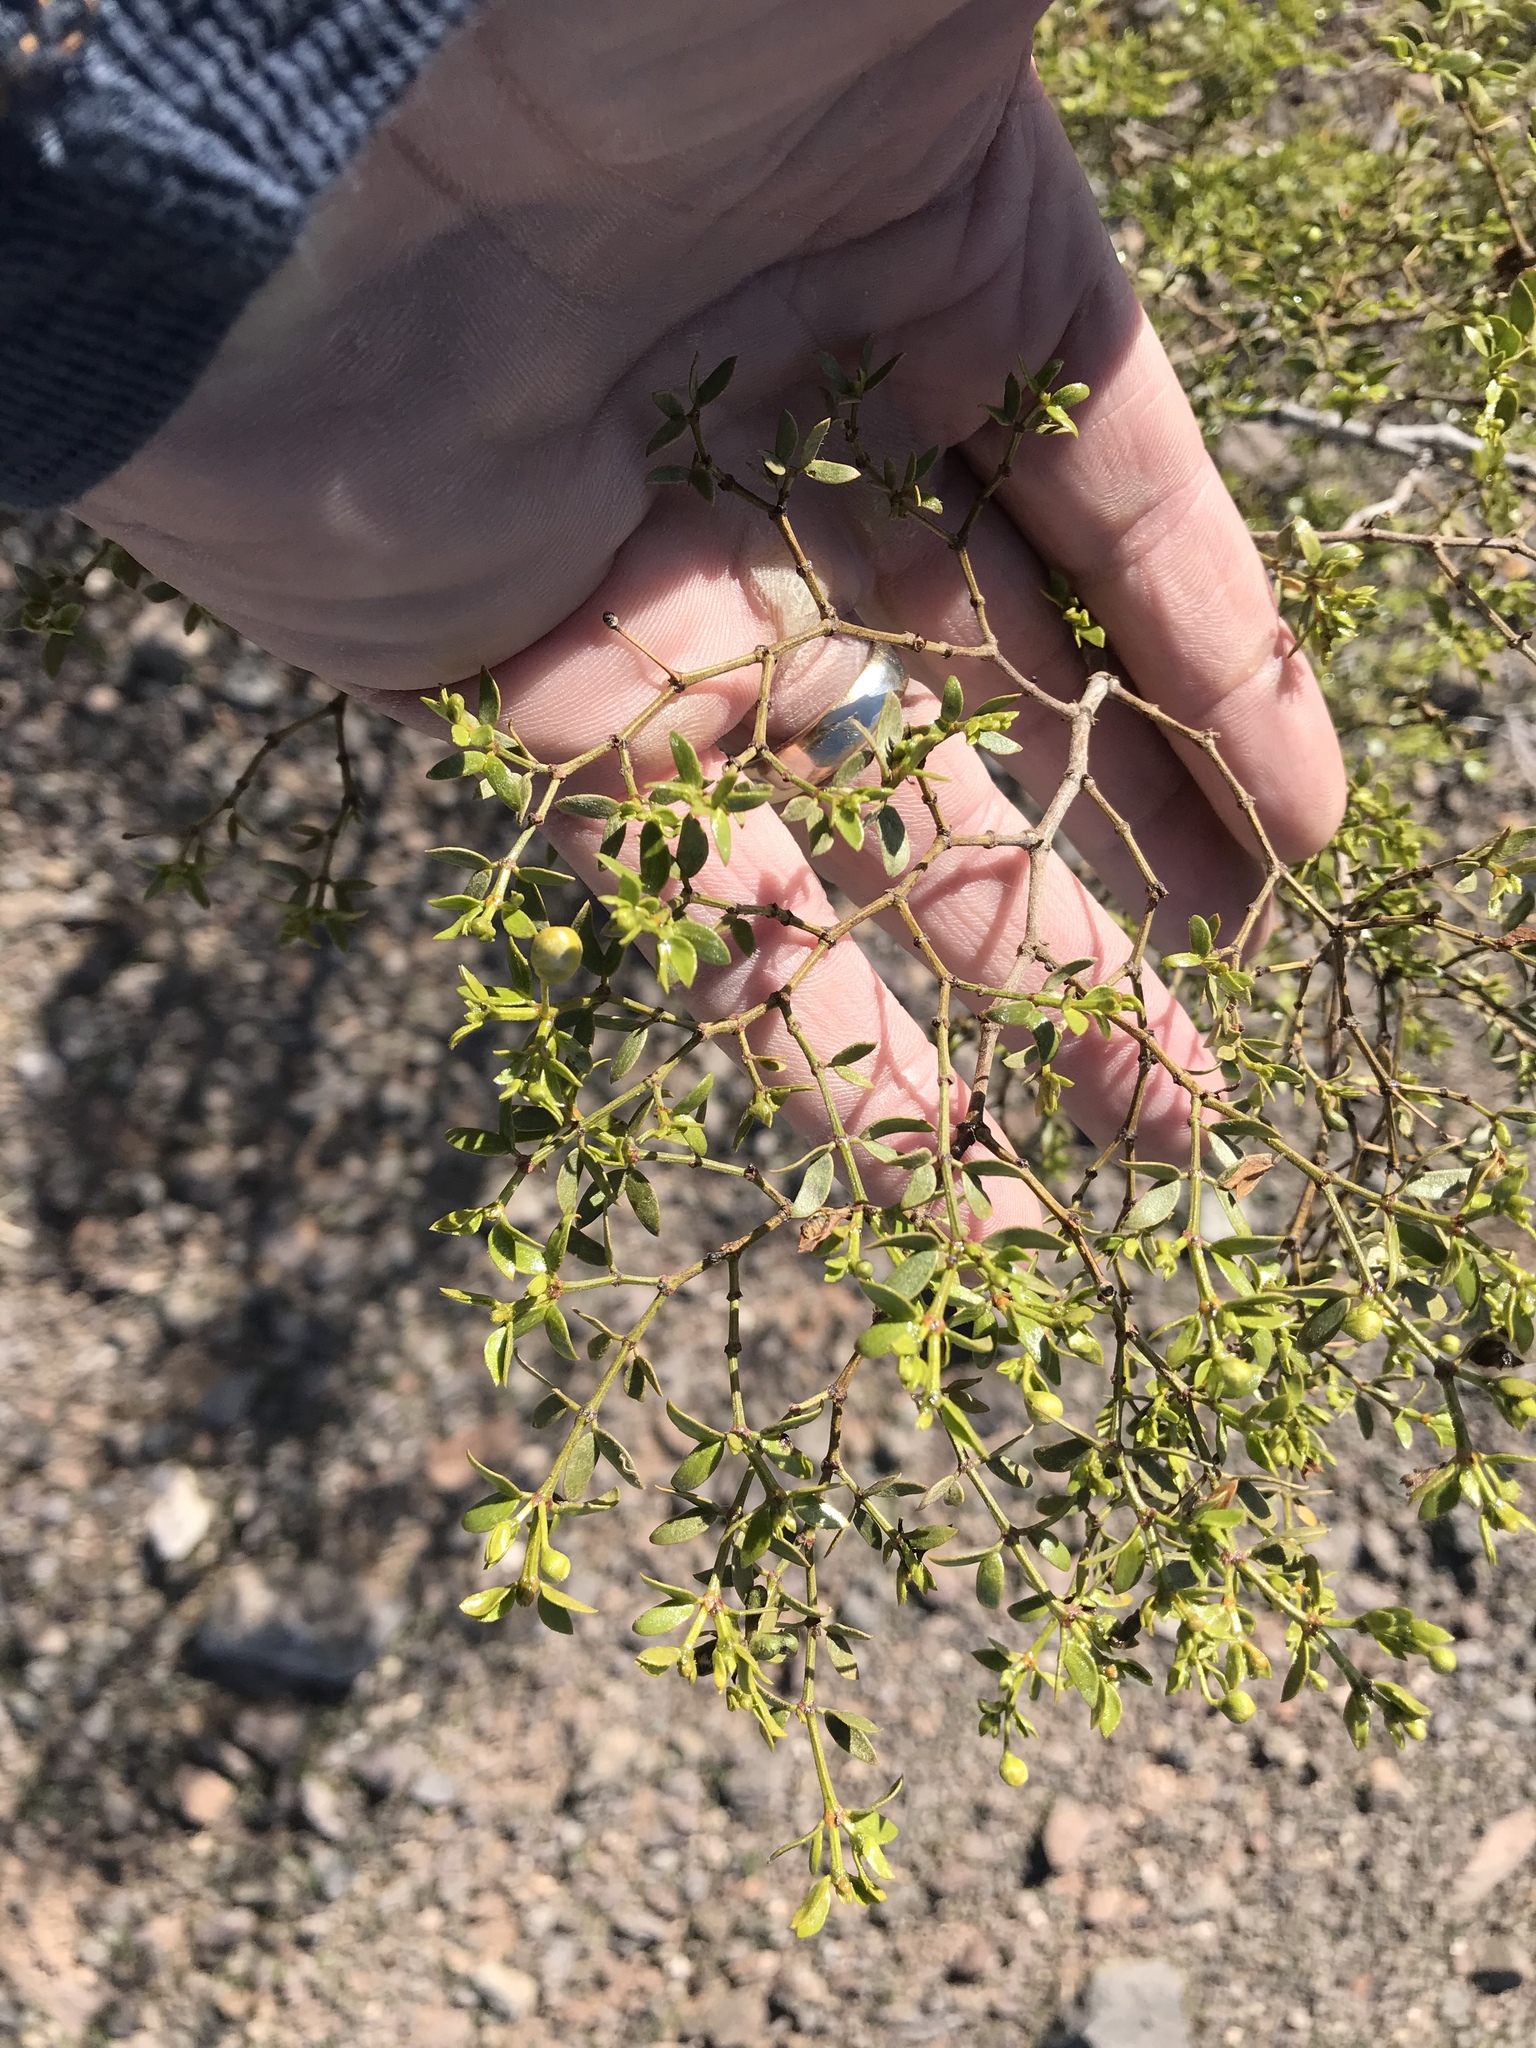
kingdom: Plantae
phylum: Tracheophyta
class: Magnoliopsida
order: Zygophyllales
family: Zygophyllaceae
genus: Larrea
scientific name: Larrea tridentata
